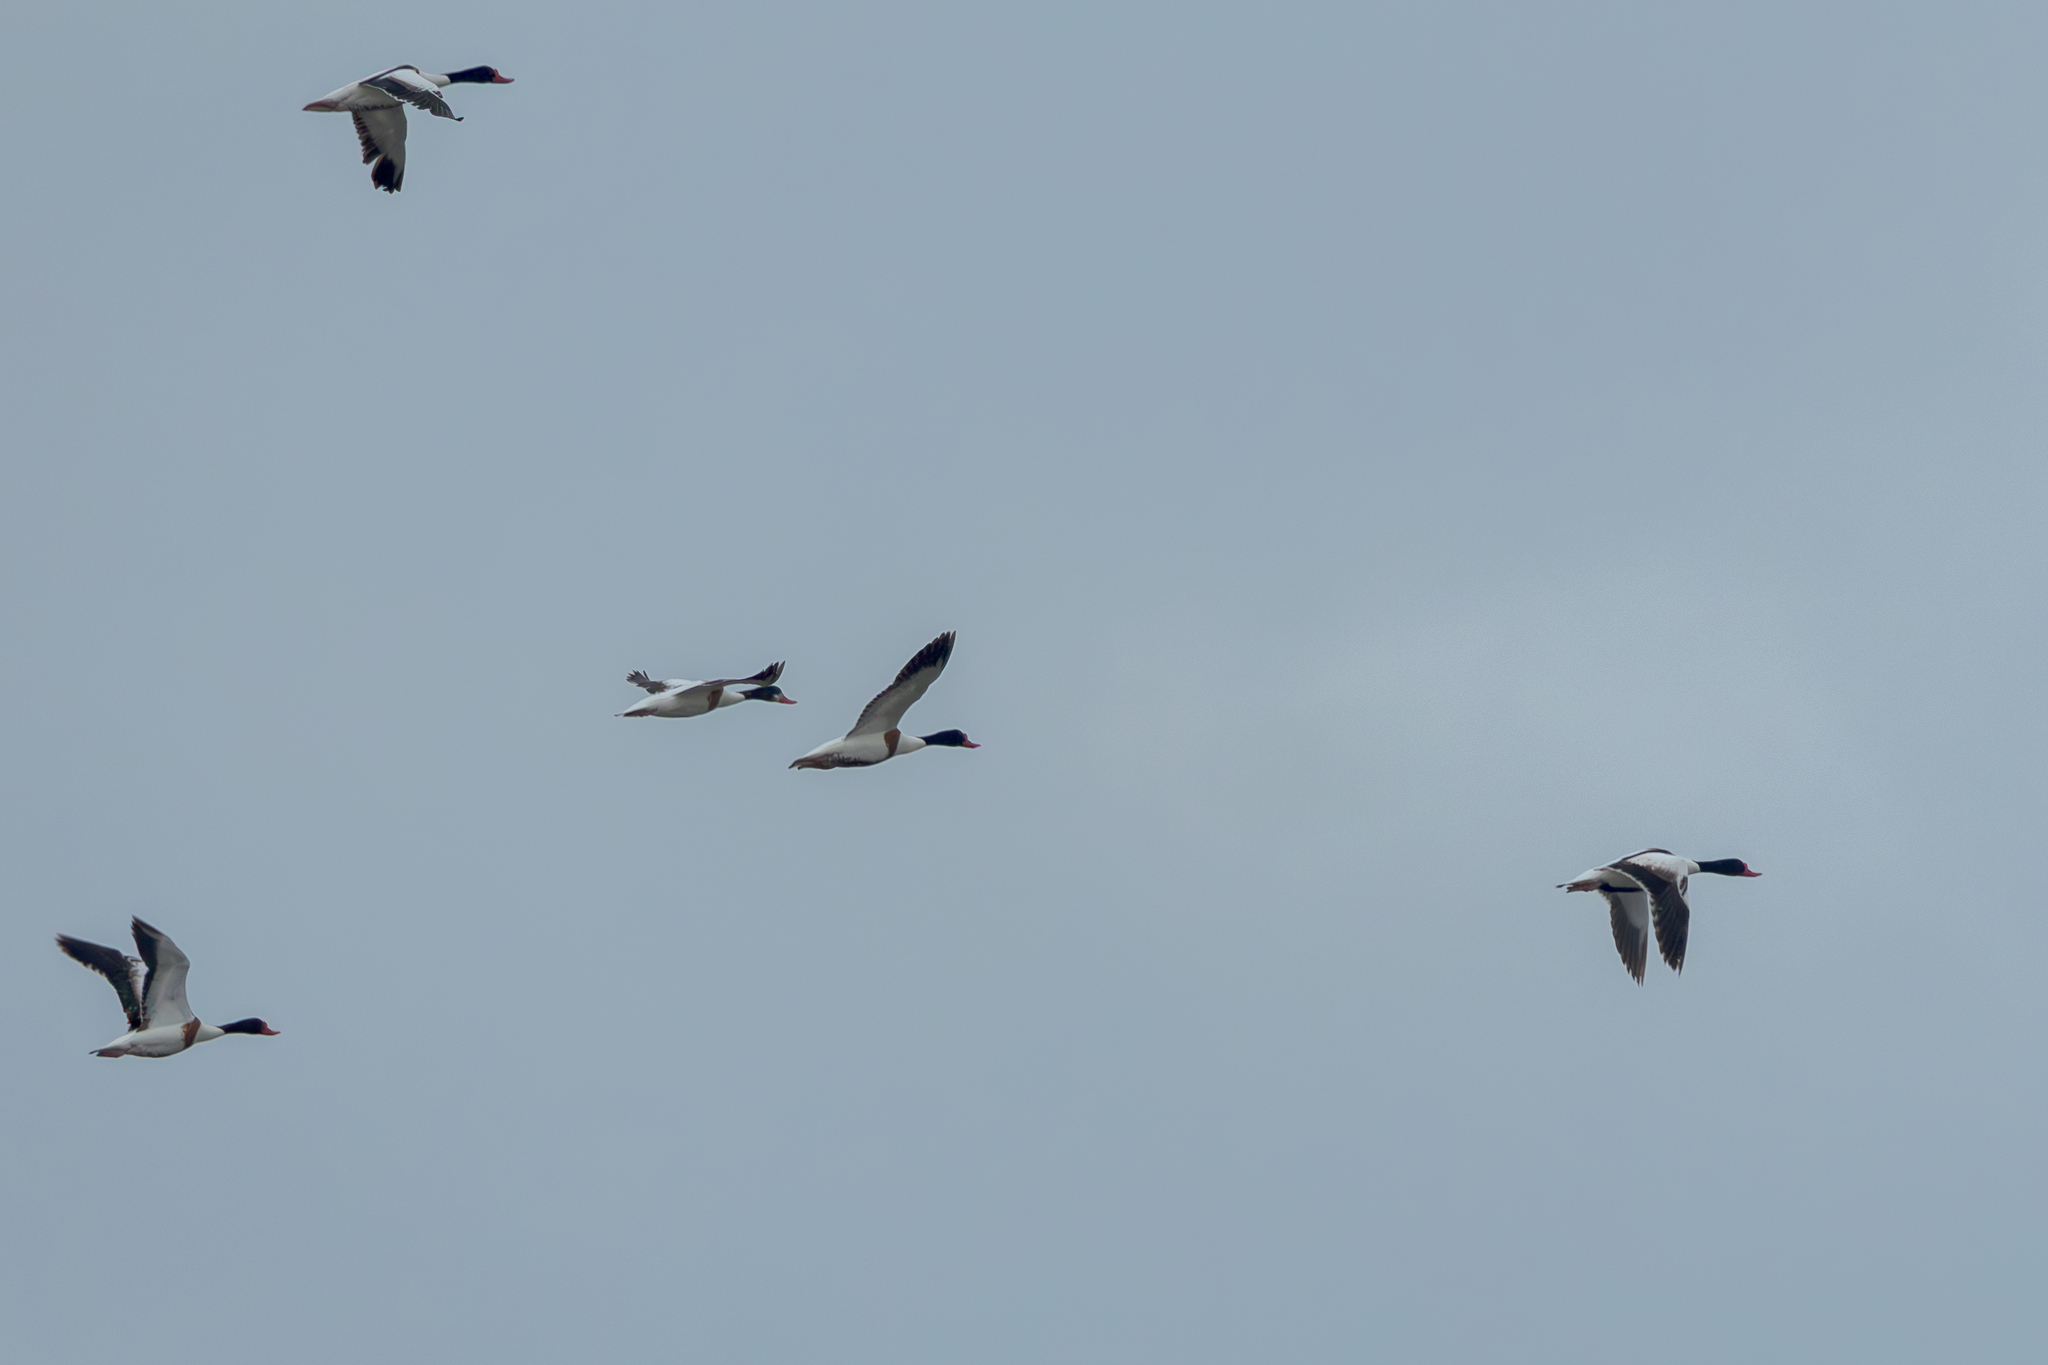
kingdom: Animalia
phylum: Chordata
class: Aves
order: Anseriformes
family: Anatidae
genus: Tadorna
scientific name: Tadorna tadorna
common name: Common shelduck
